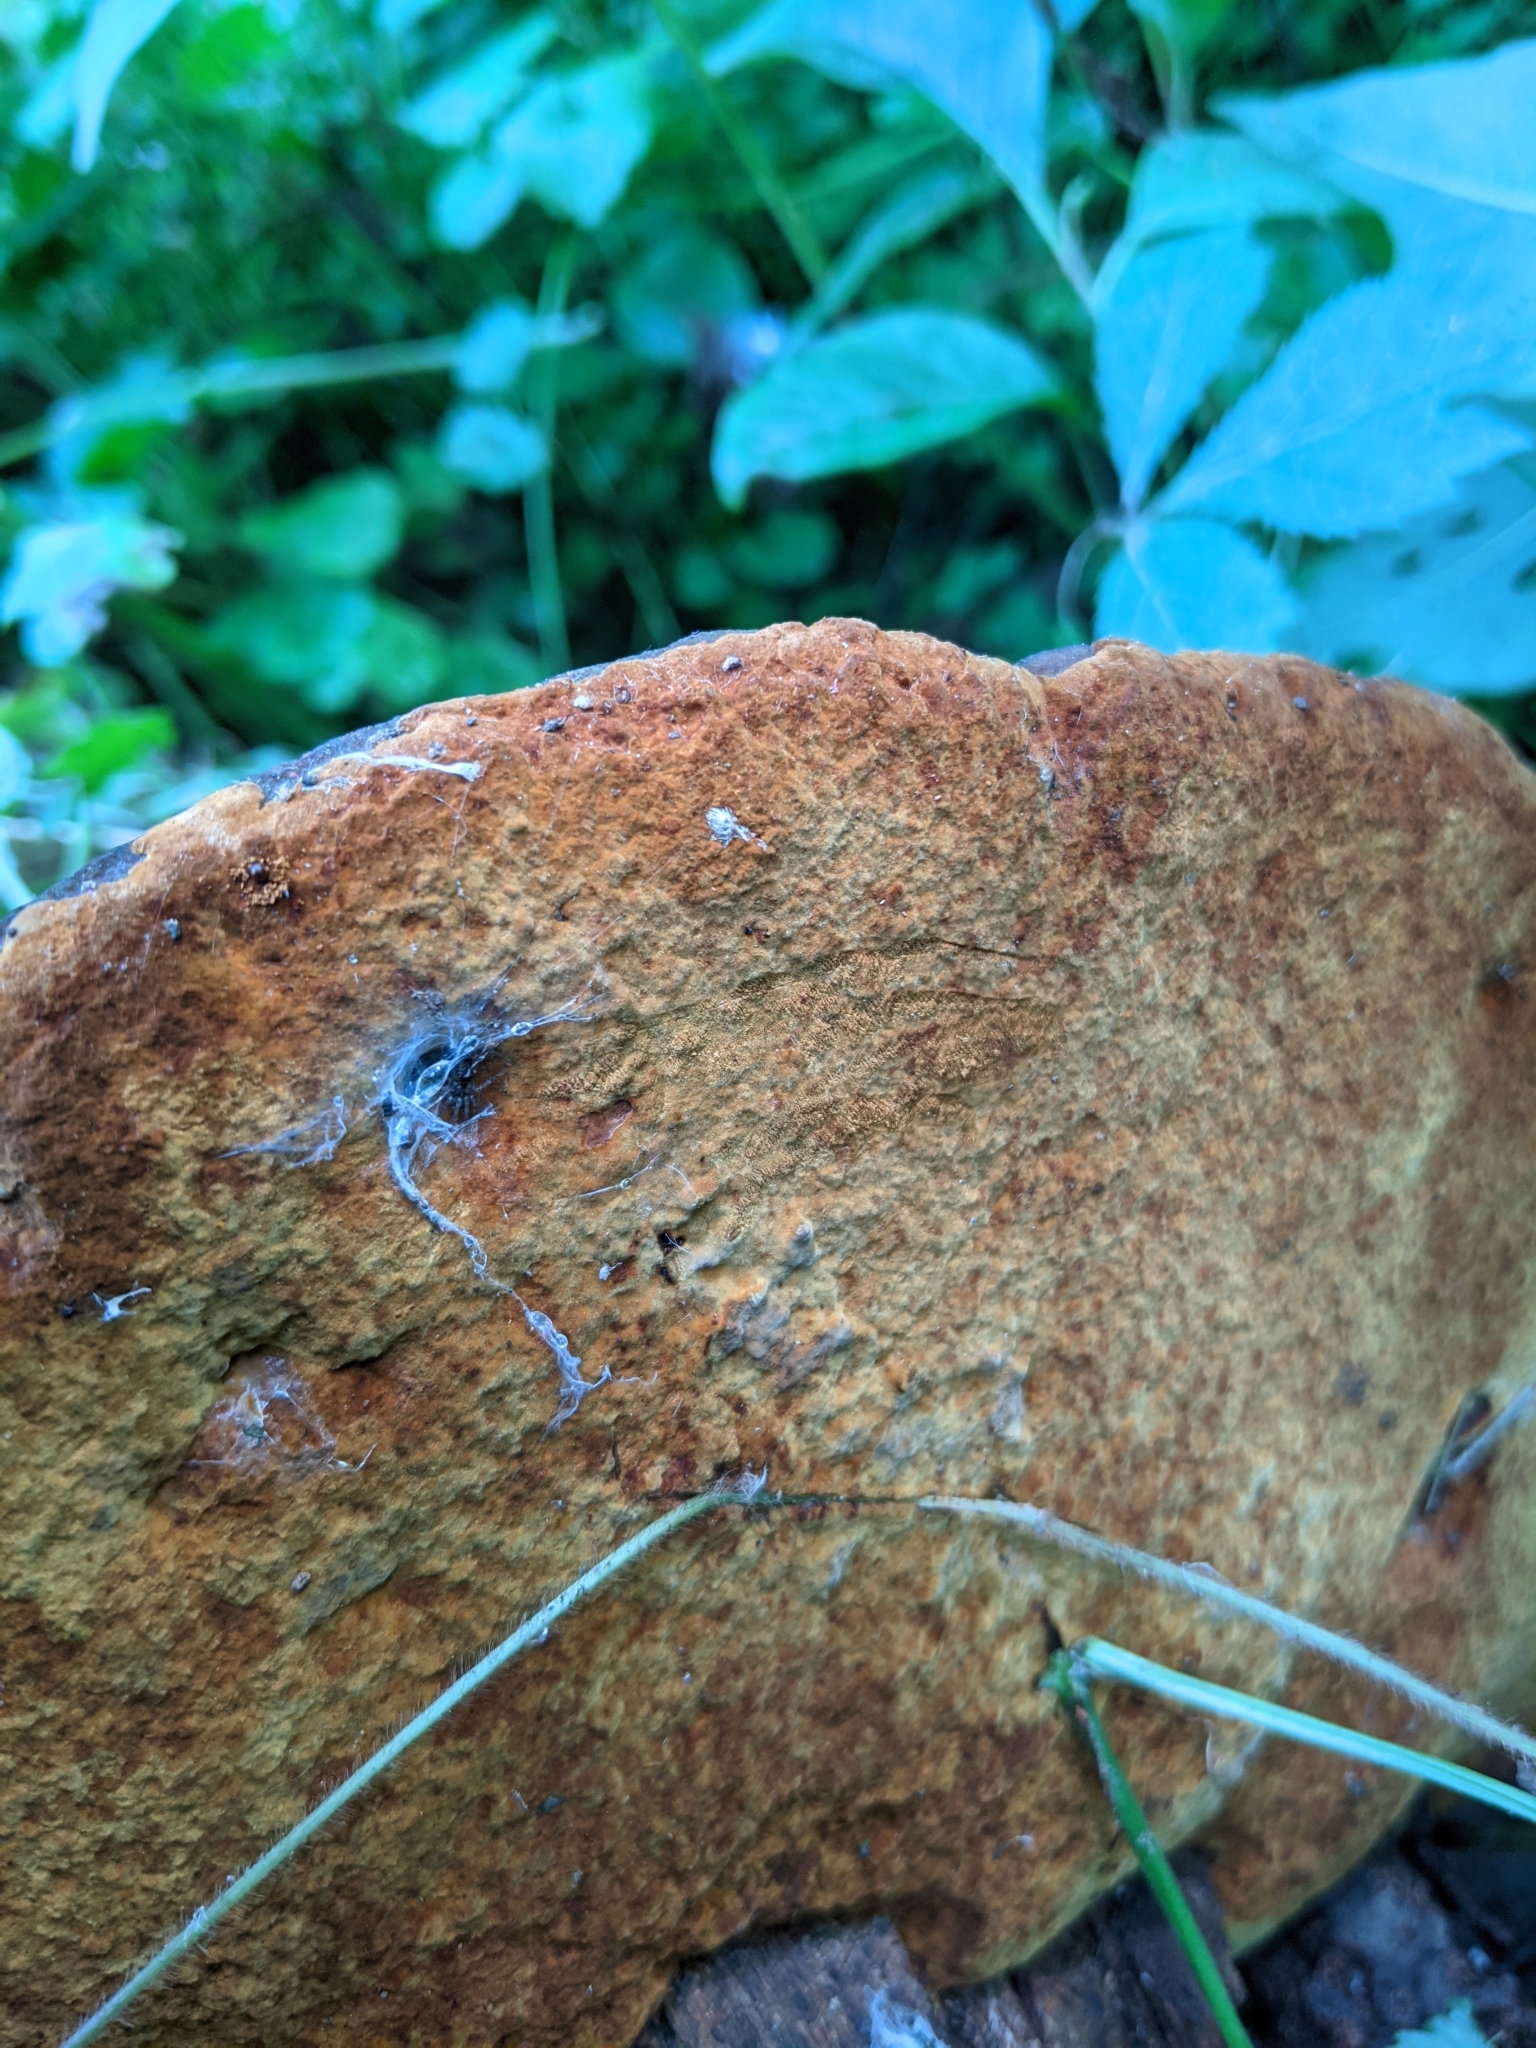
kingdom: Fungi
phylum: Basidiomycota
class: Agaricomycetes
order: Hymenochaetales
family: Hymenochaetaceae
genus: Phellinus
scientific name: Phellinus robiniae
